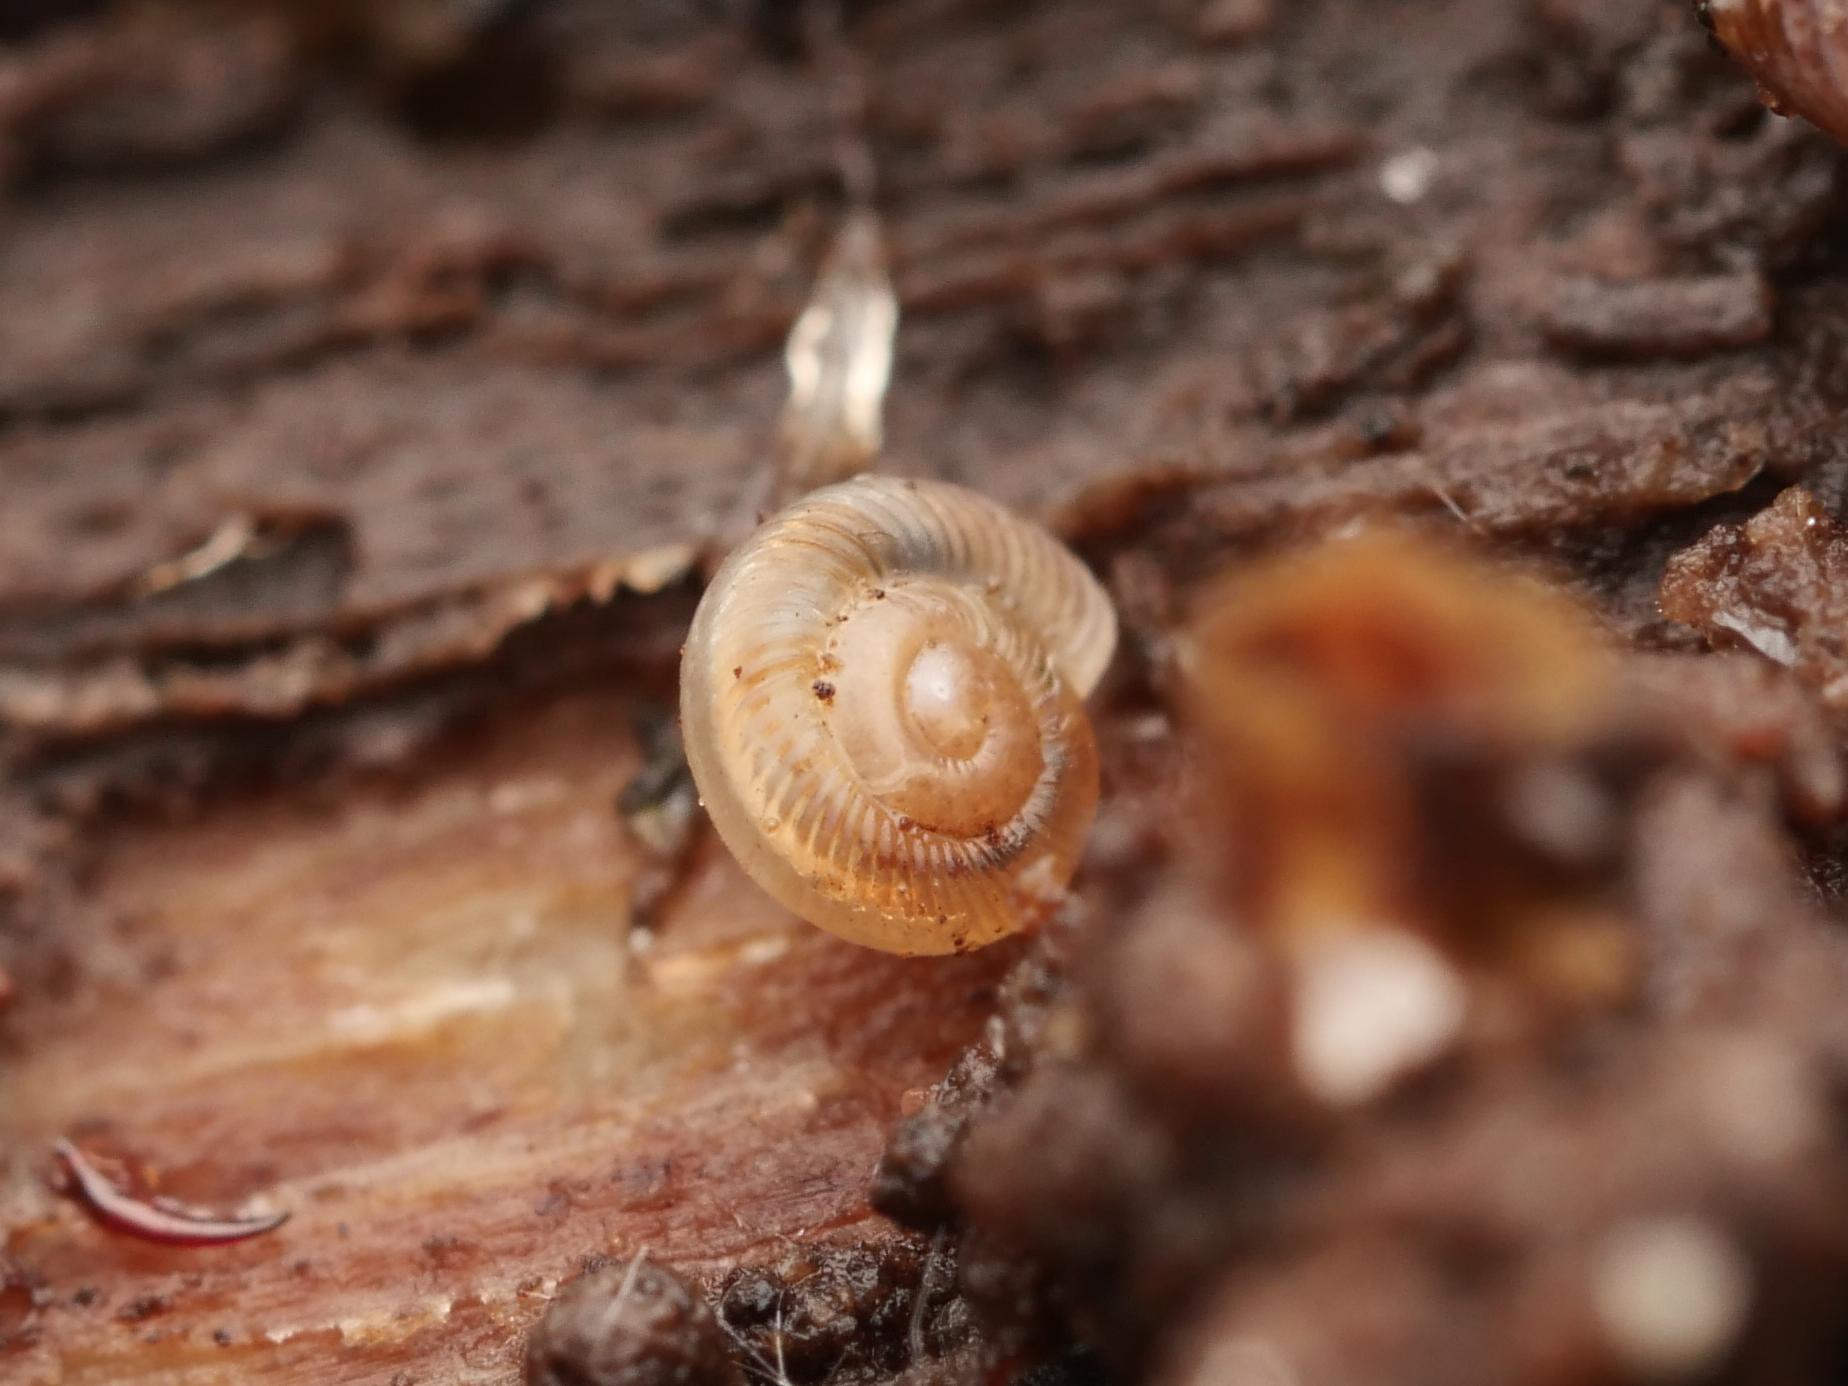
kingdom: Animalia
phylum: Mollusca
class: Gastropoda
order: Stylommatophora
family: Discidae
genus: Discus
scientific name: Discus rotundatus
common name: Rounded snail
